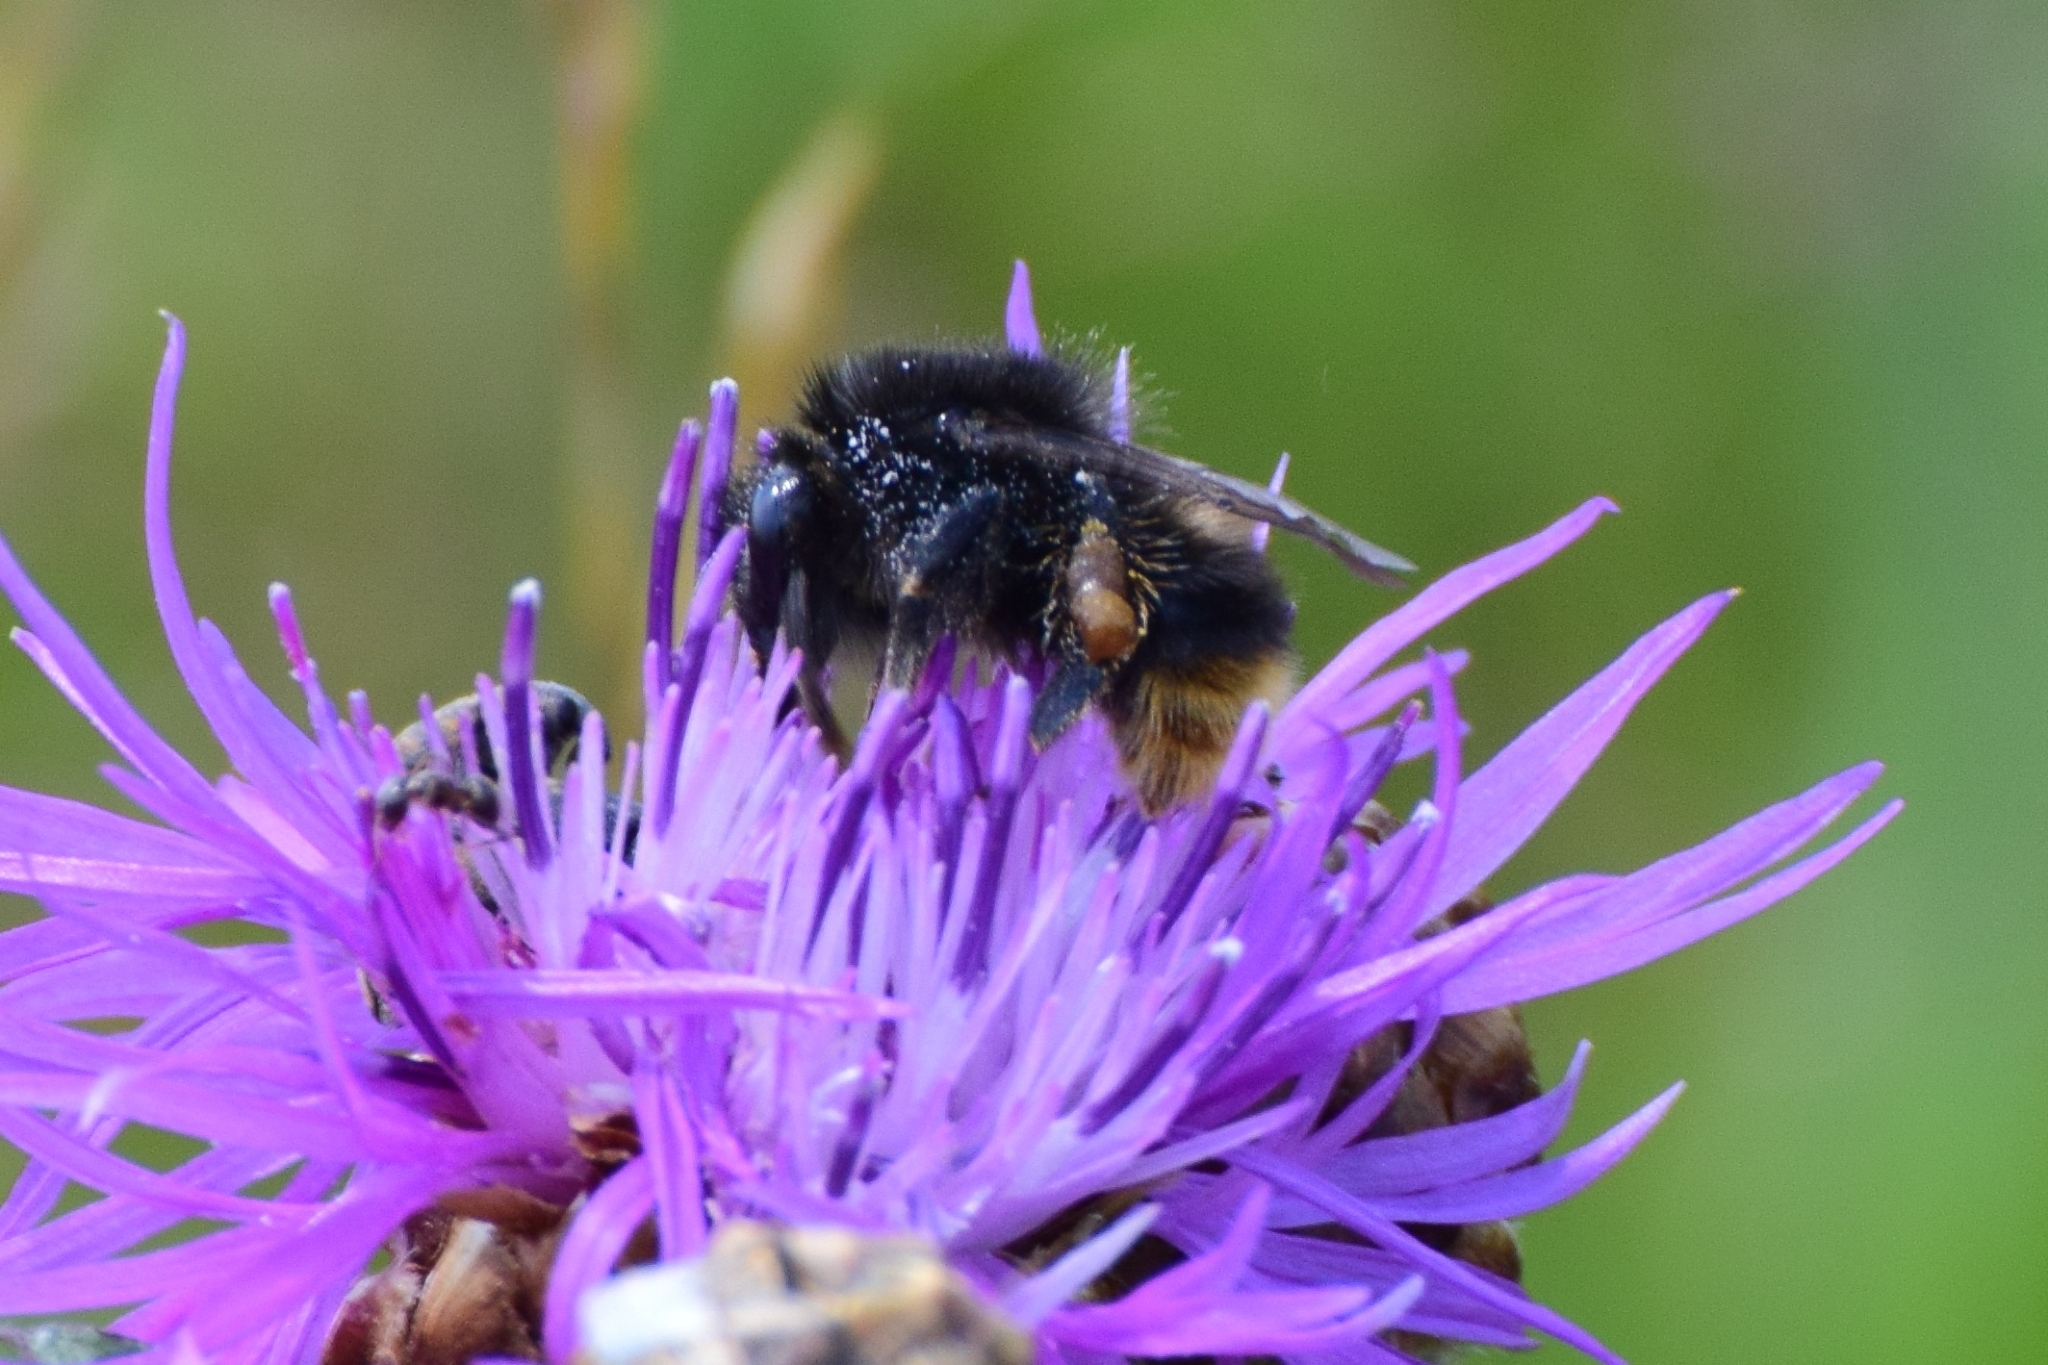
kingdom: Animalia
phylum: Arthropoda
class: Insecta
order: Hymenoptera
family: Apidae
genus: Bombus
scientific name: Bombus ruderarius
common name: Red-shanked carder-bee
